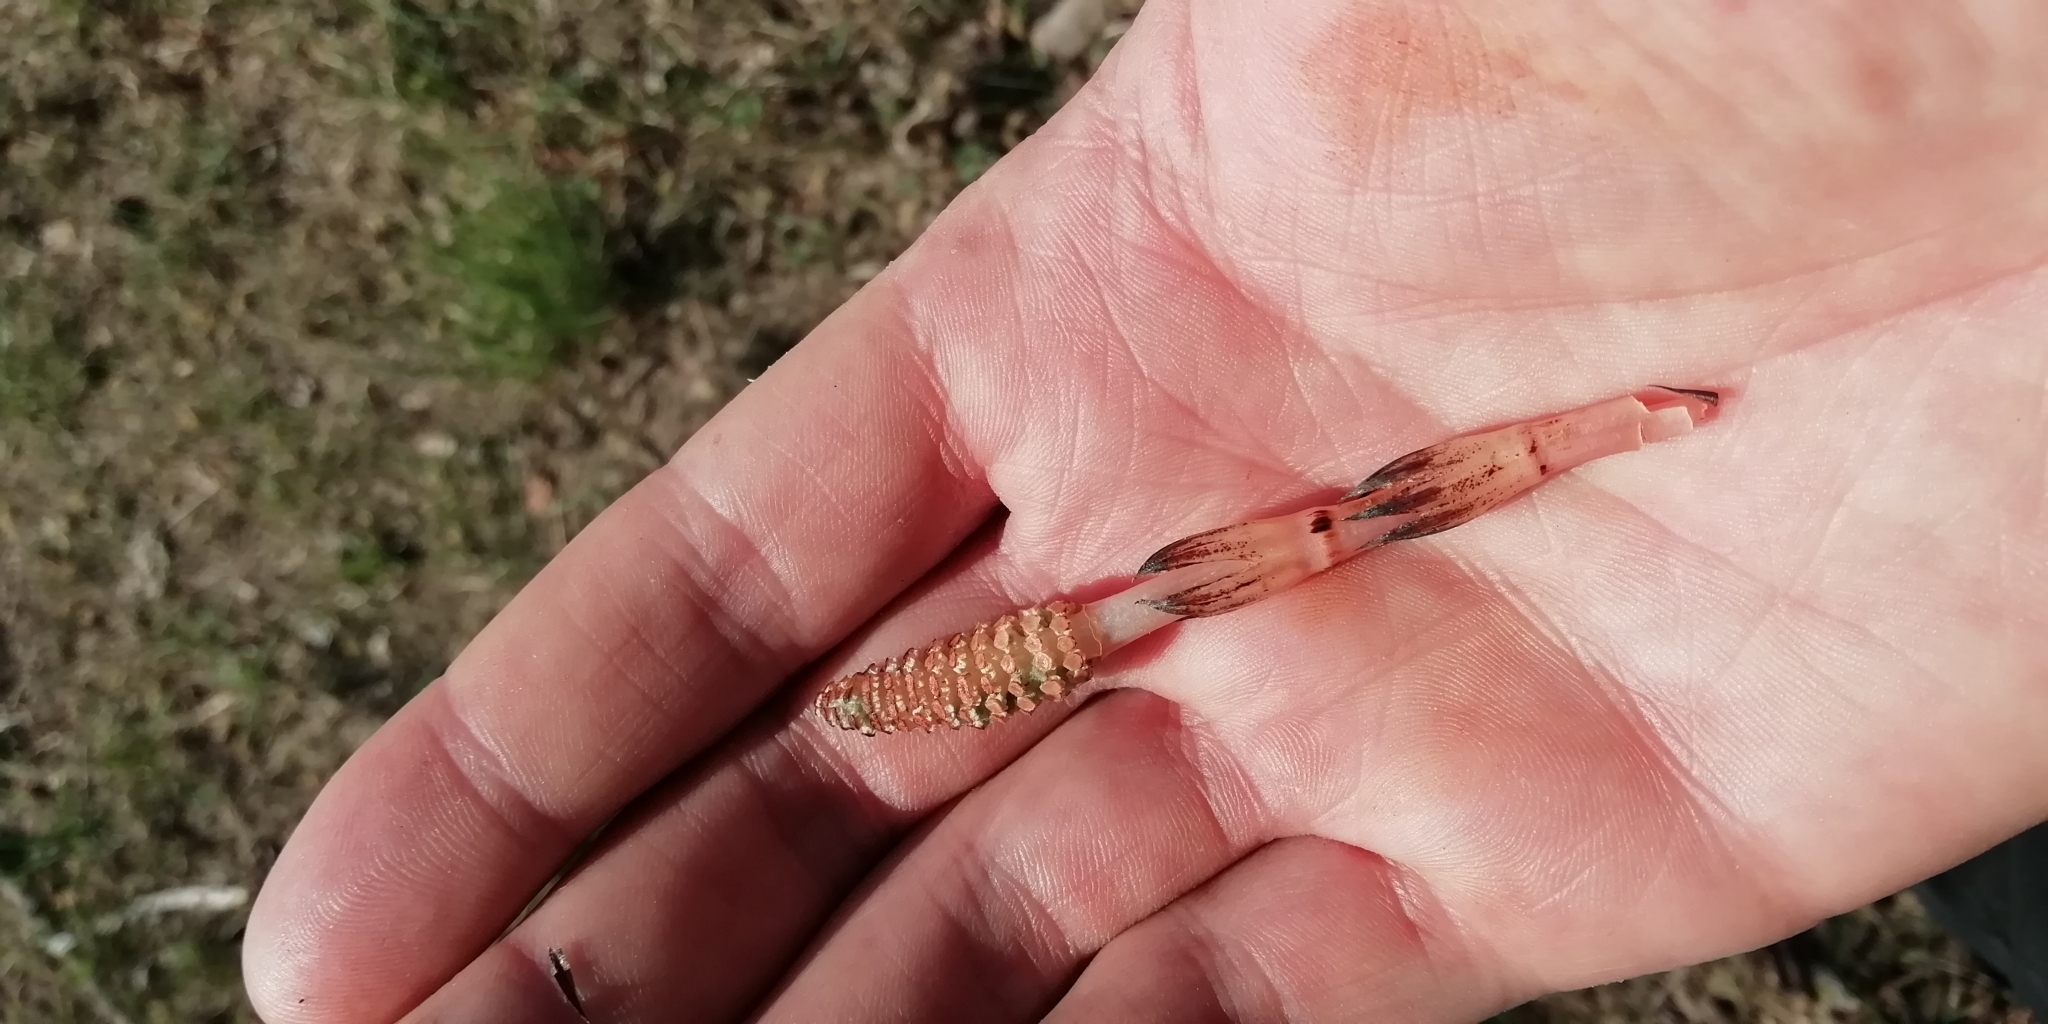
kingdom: Plantae
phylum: Tracheophyta
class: Polypodiopsida
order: Equisetales
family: Equisetaceae
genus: Equisetum
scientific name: Equisetum arvense
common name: Field horsetail
